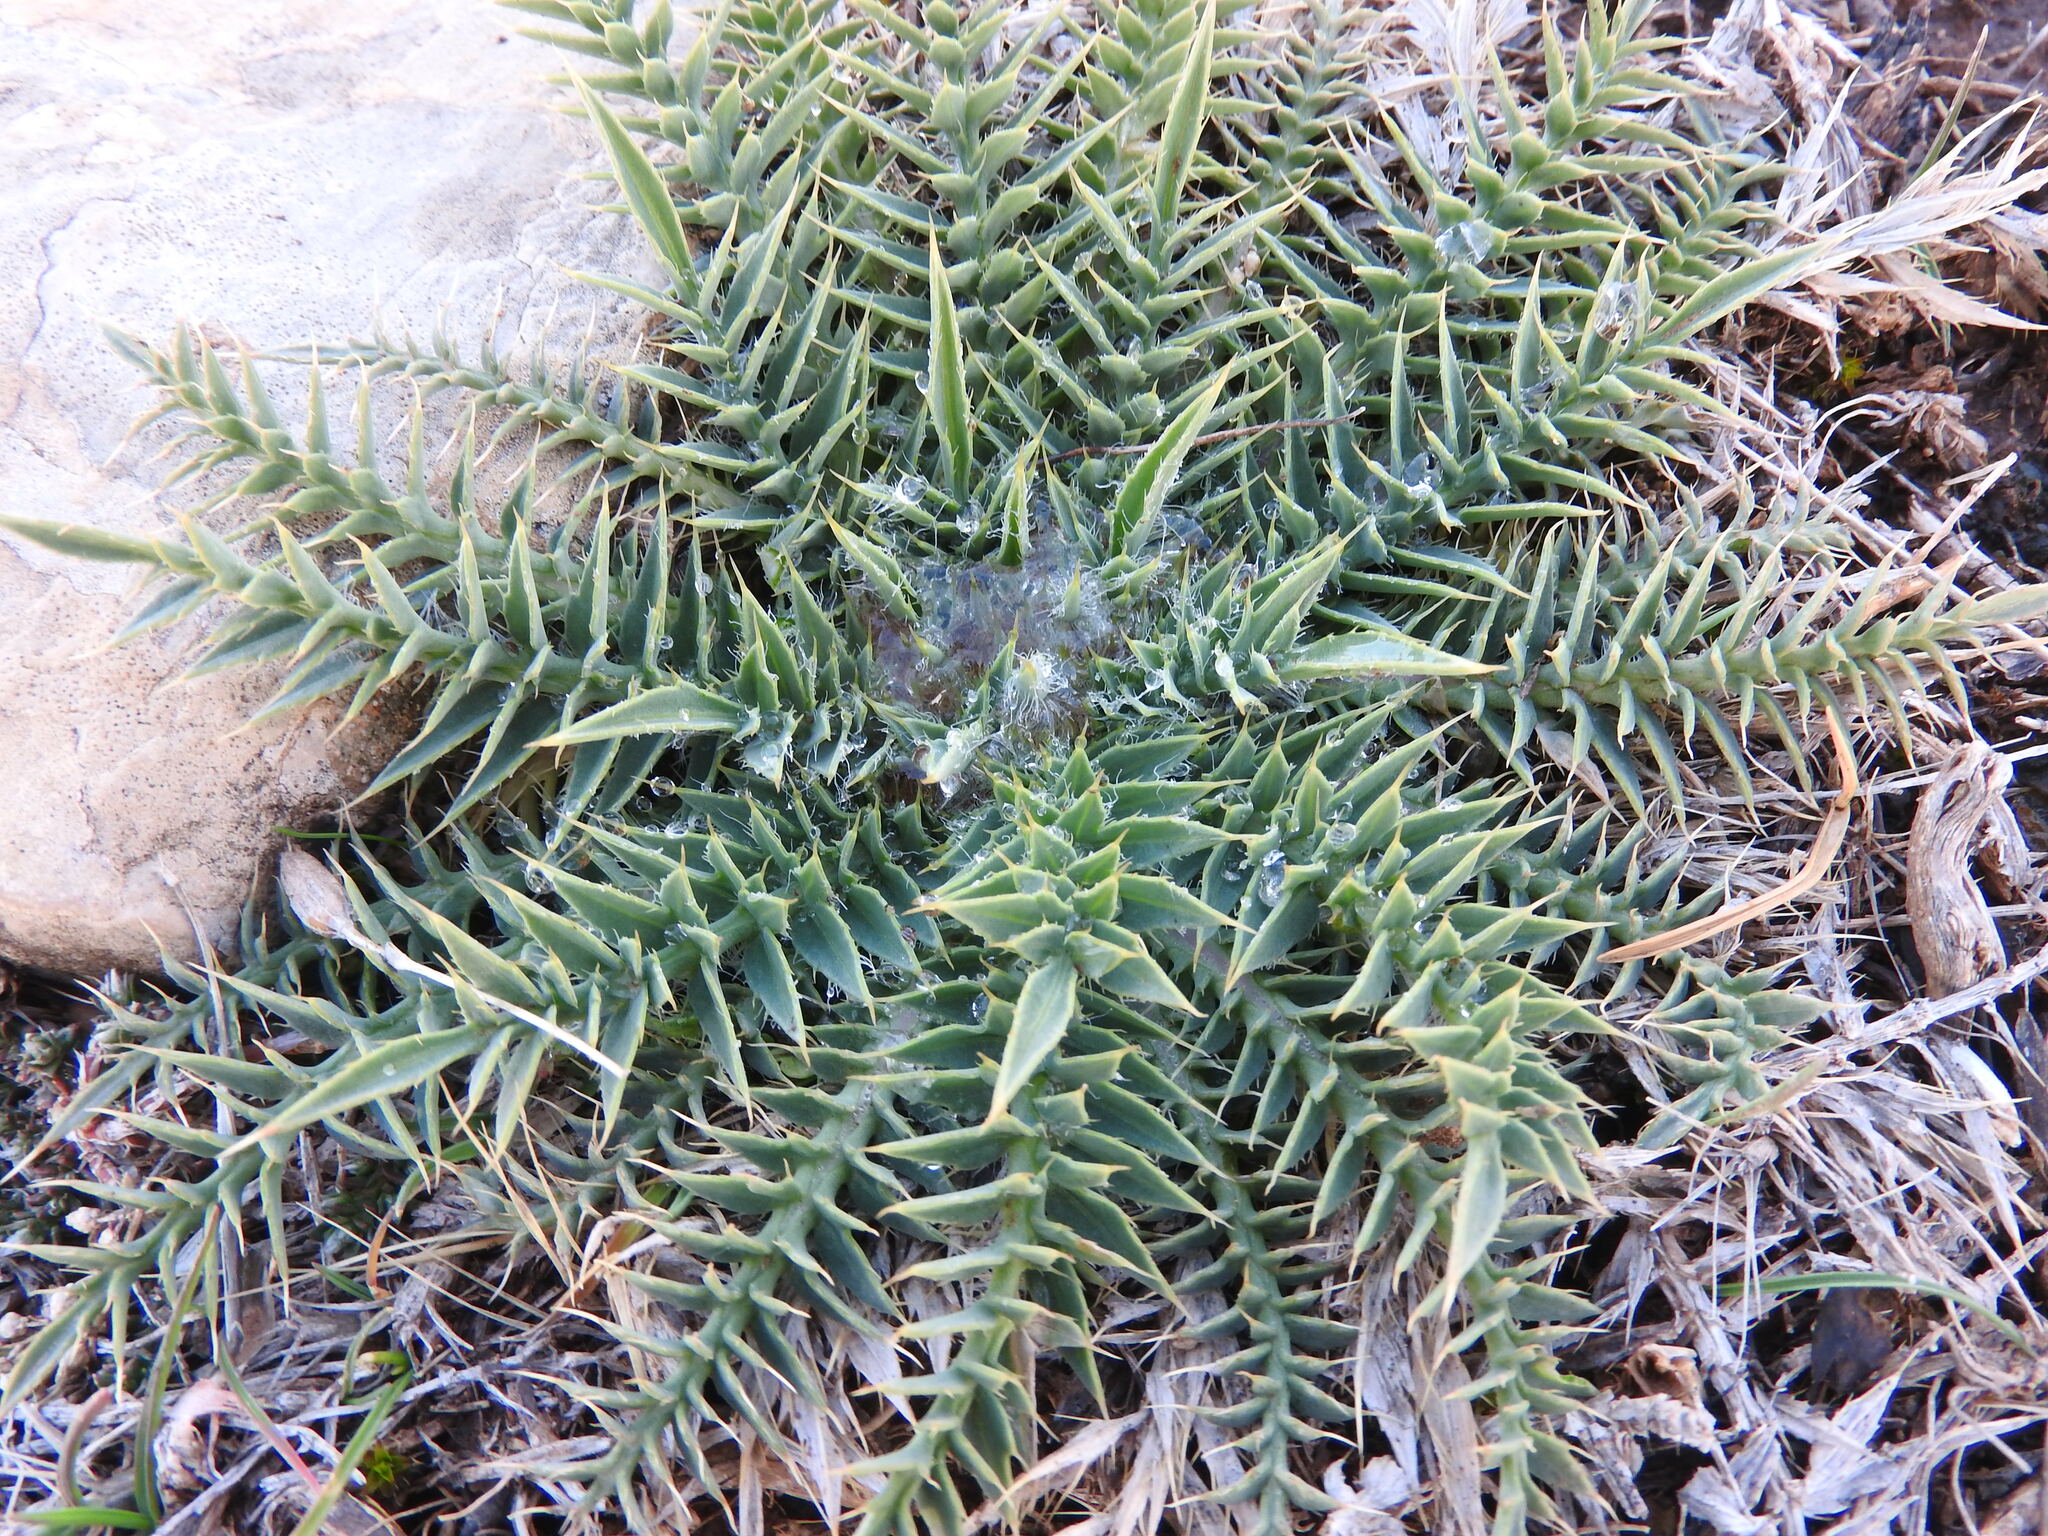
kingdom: Plantae
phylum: Tracheophyta
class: Magnoliopsida
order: Asterales
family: Asteraceae
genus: Carduncellus
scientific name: Carduncellus
